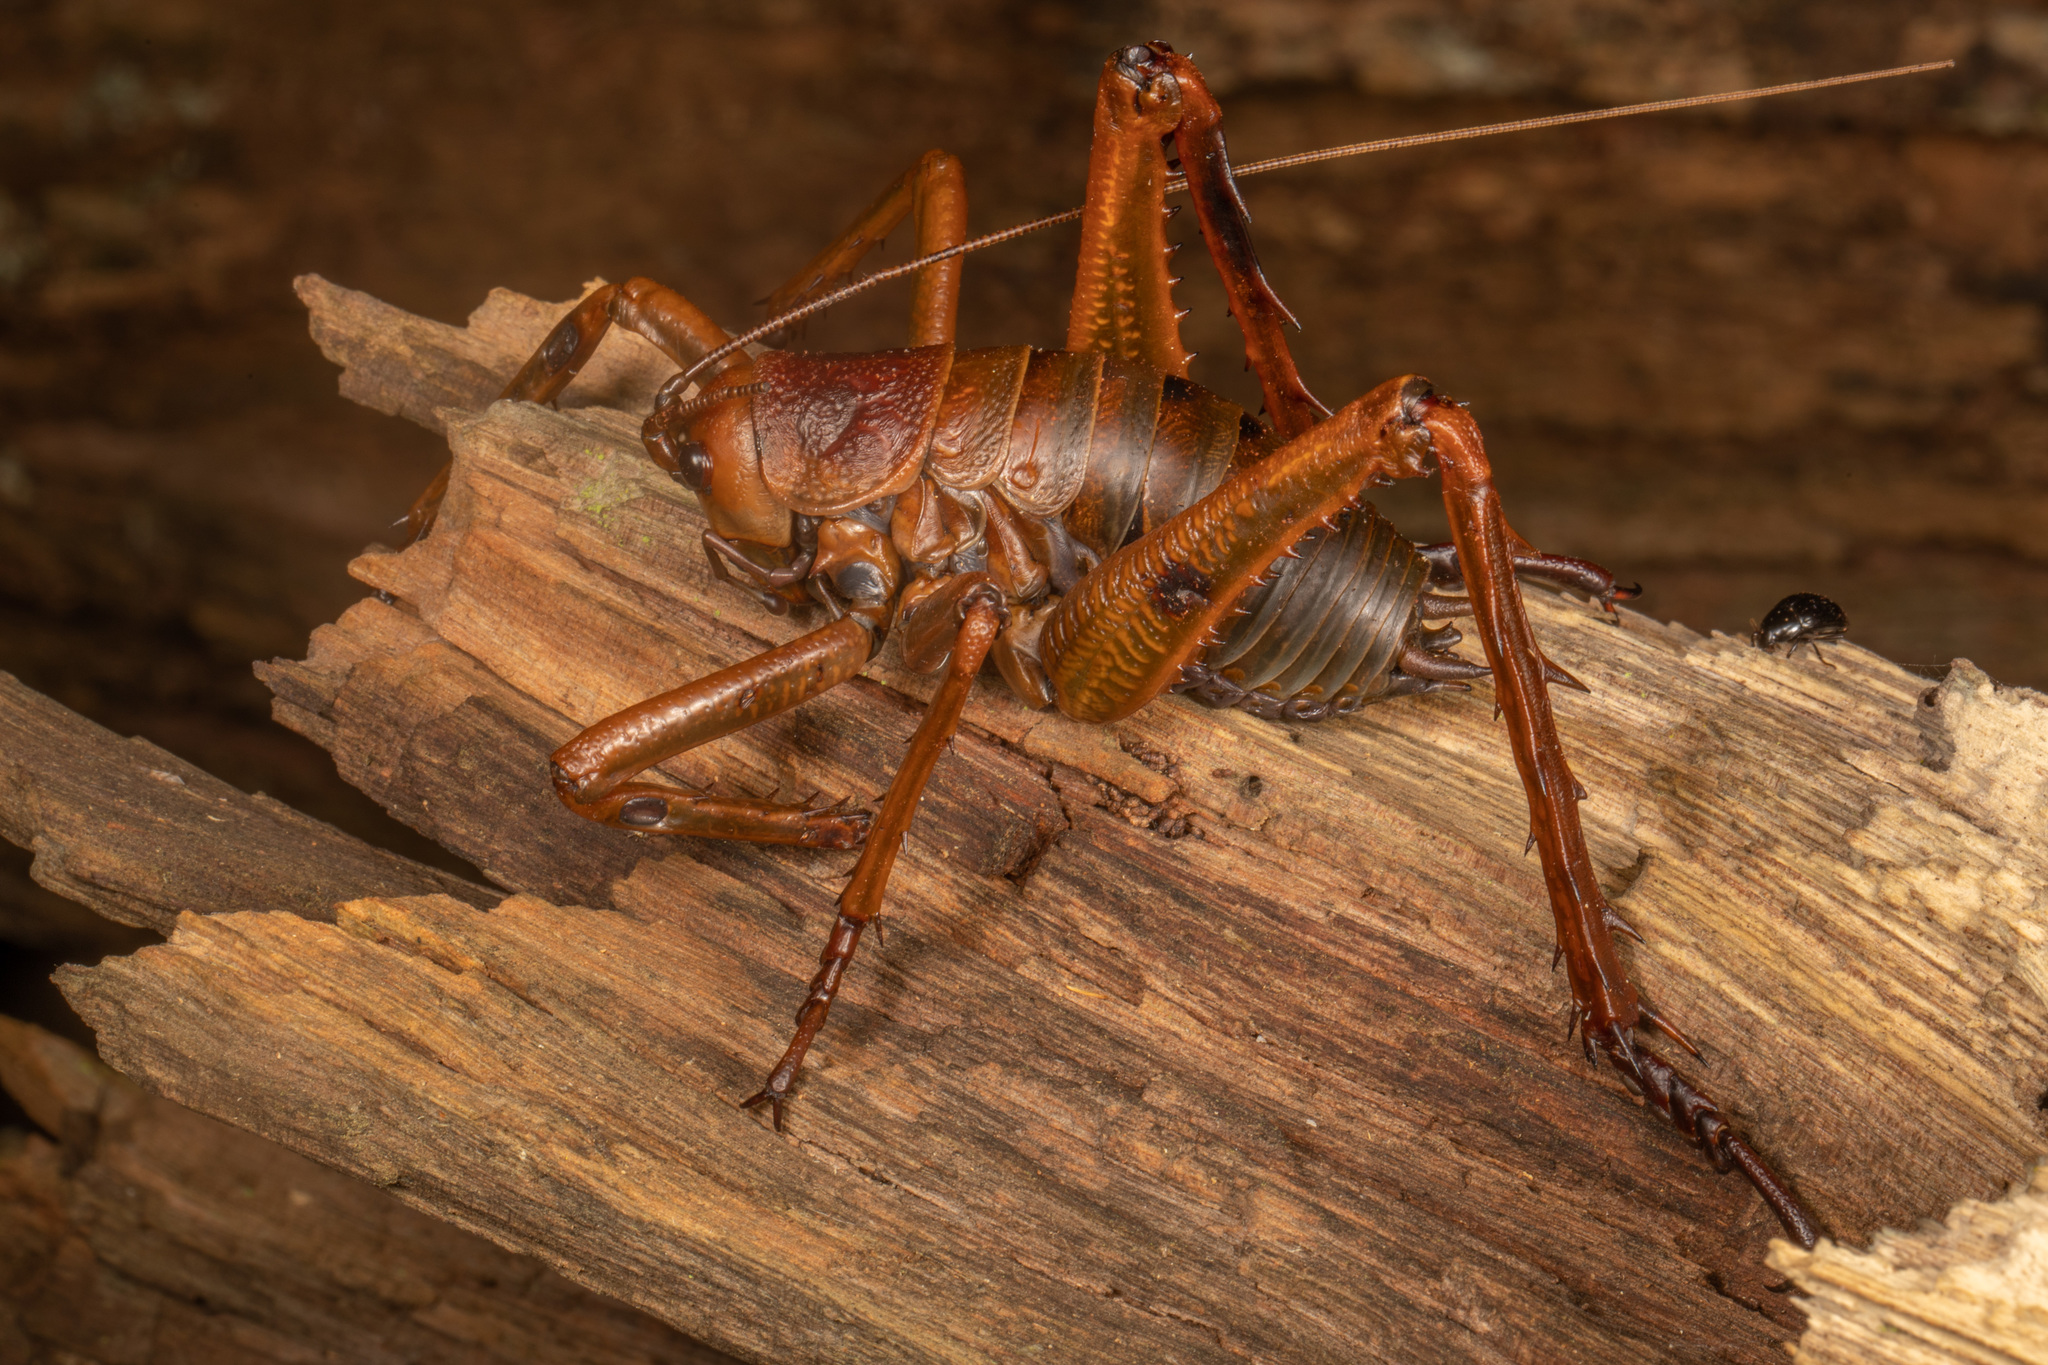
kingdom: Animalia
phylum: Arthropoda
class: Insecta
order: Orthoptera
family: Anostostomatidae
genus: Deinacrida
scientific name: Deinacrida heteracantha
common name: Wetapunga
